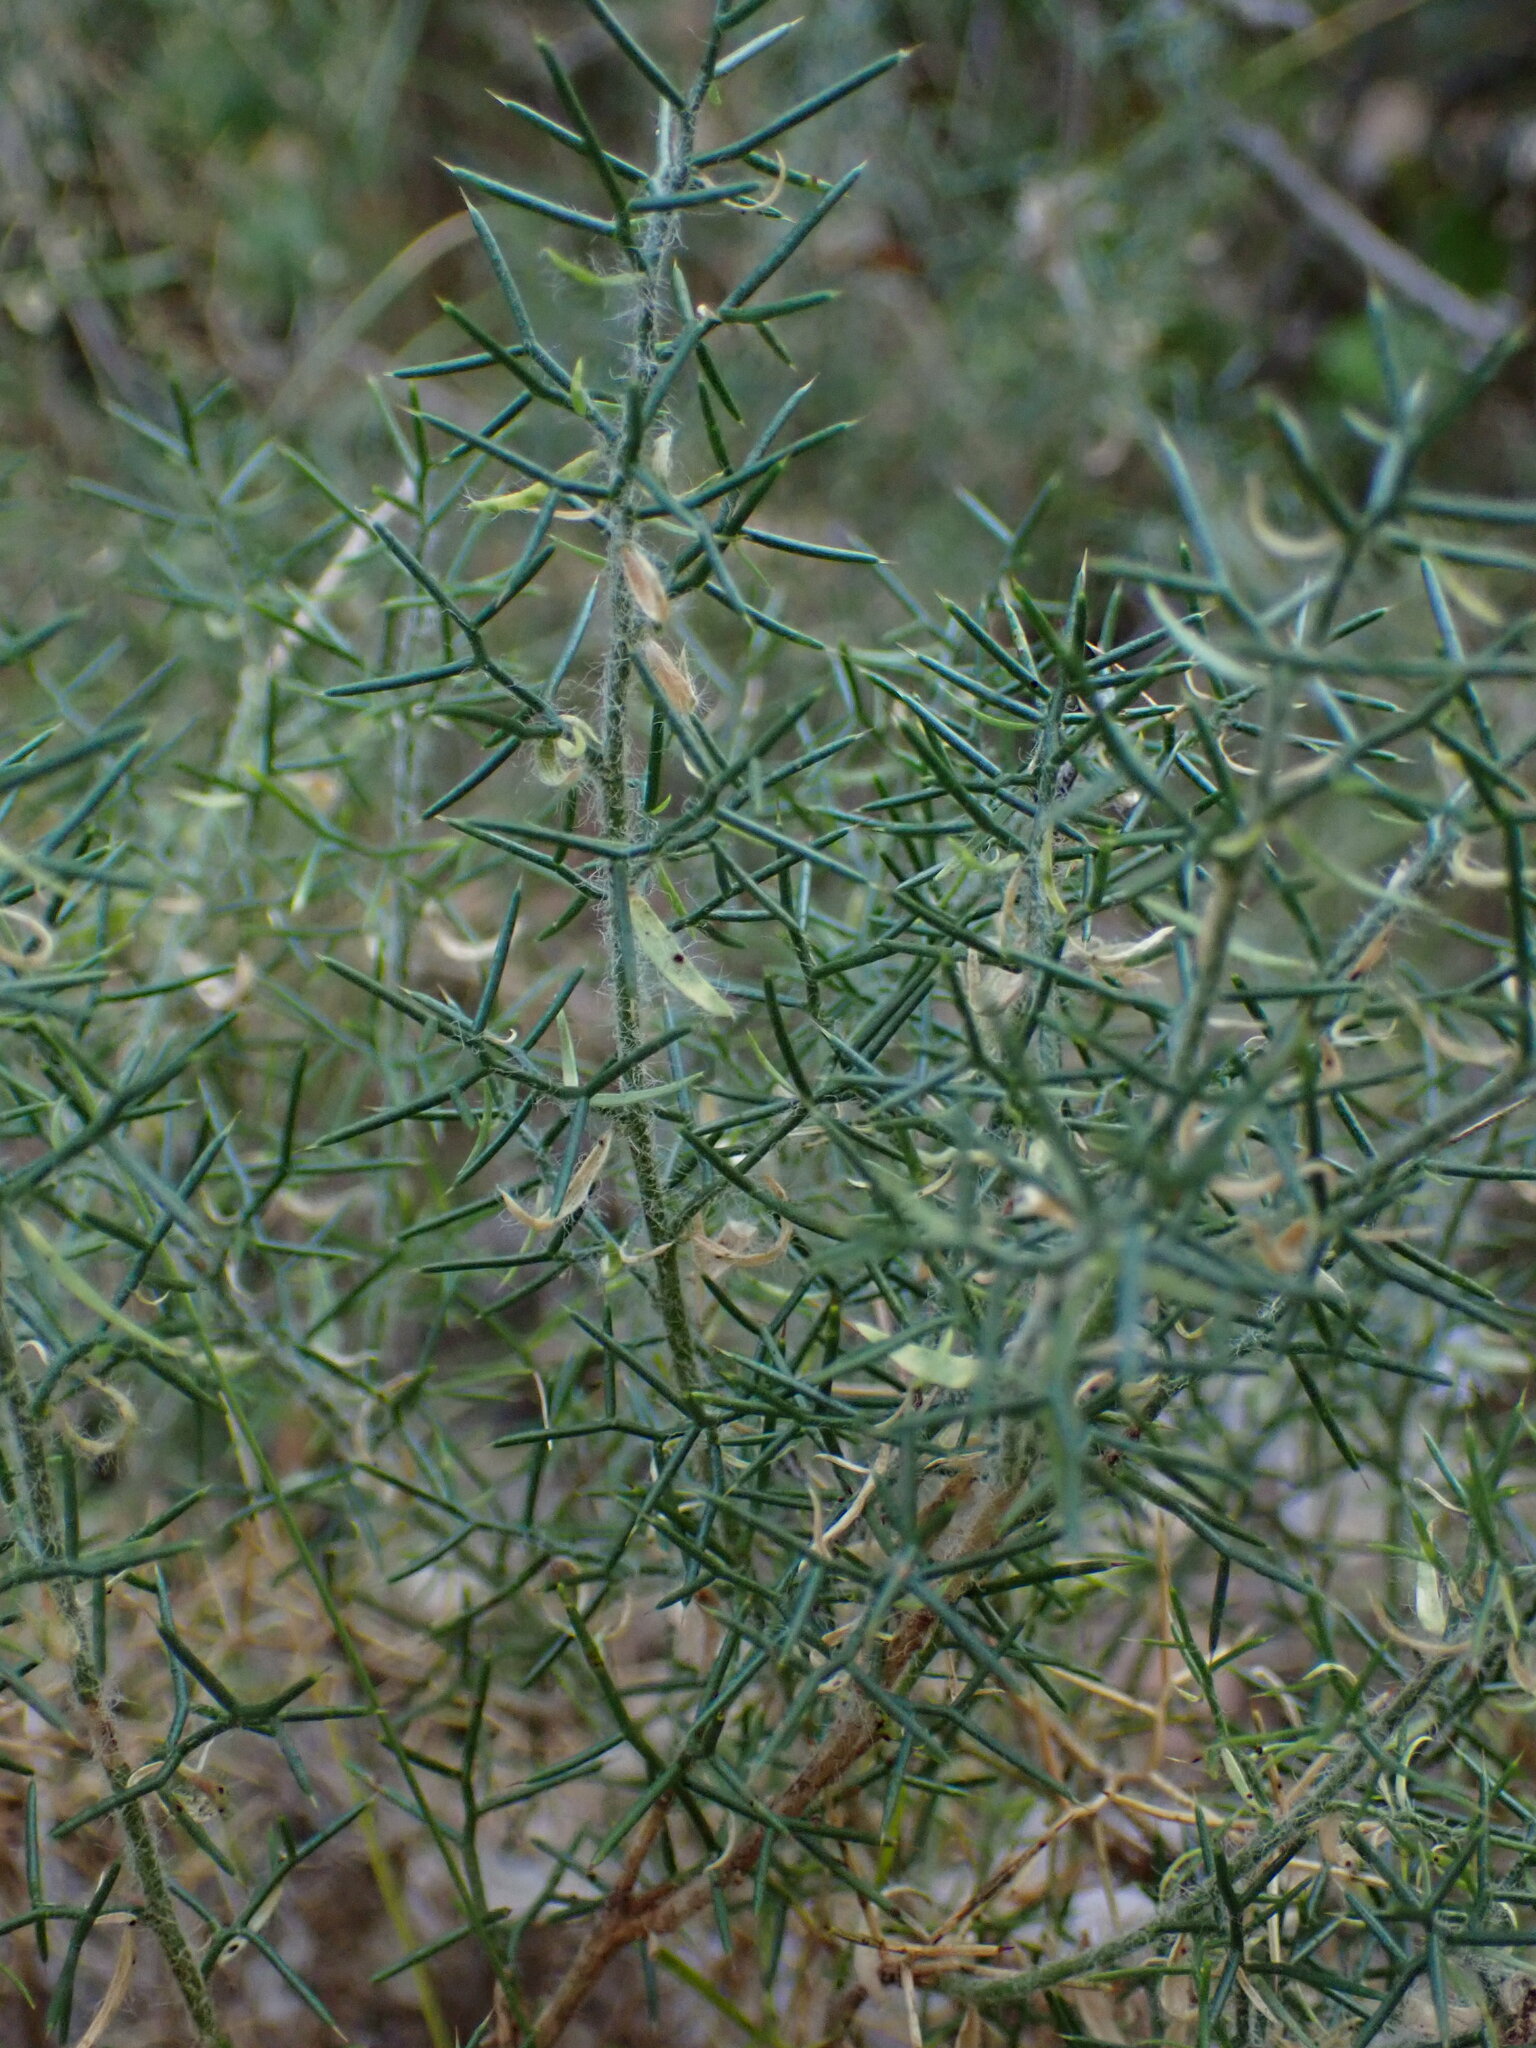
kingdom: Plantae
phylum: Tracheophyta
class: Magnoliopsida
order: Fabales
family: Fabaceae
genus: Genista
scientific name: Genista hispanica
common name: Spanish gorse
